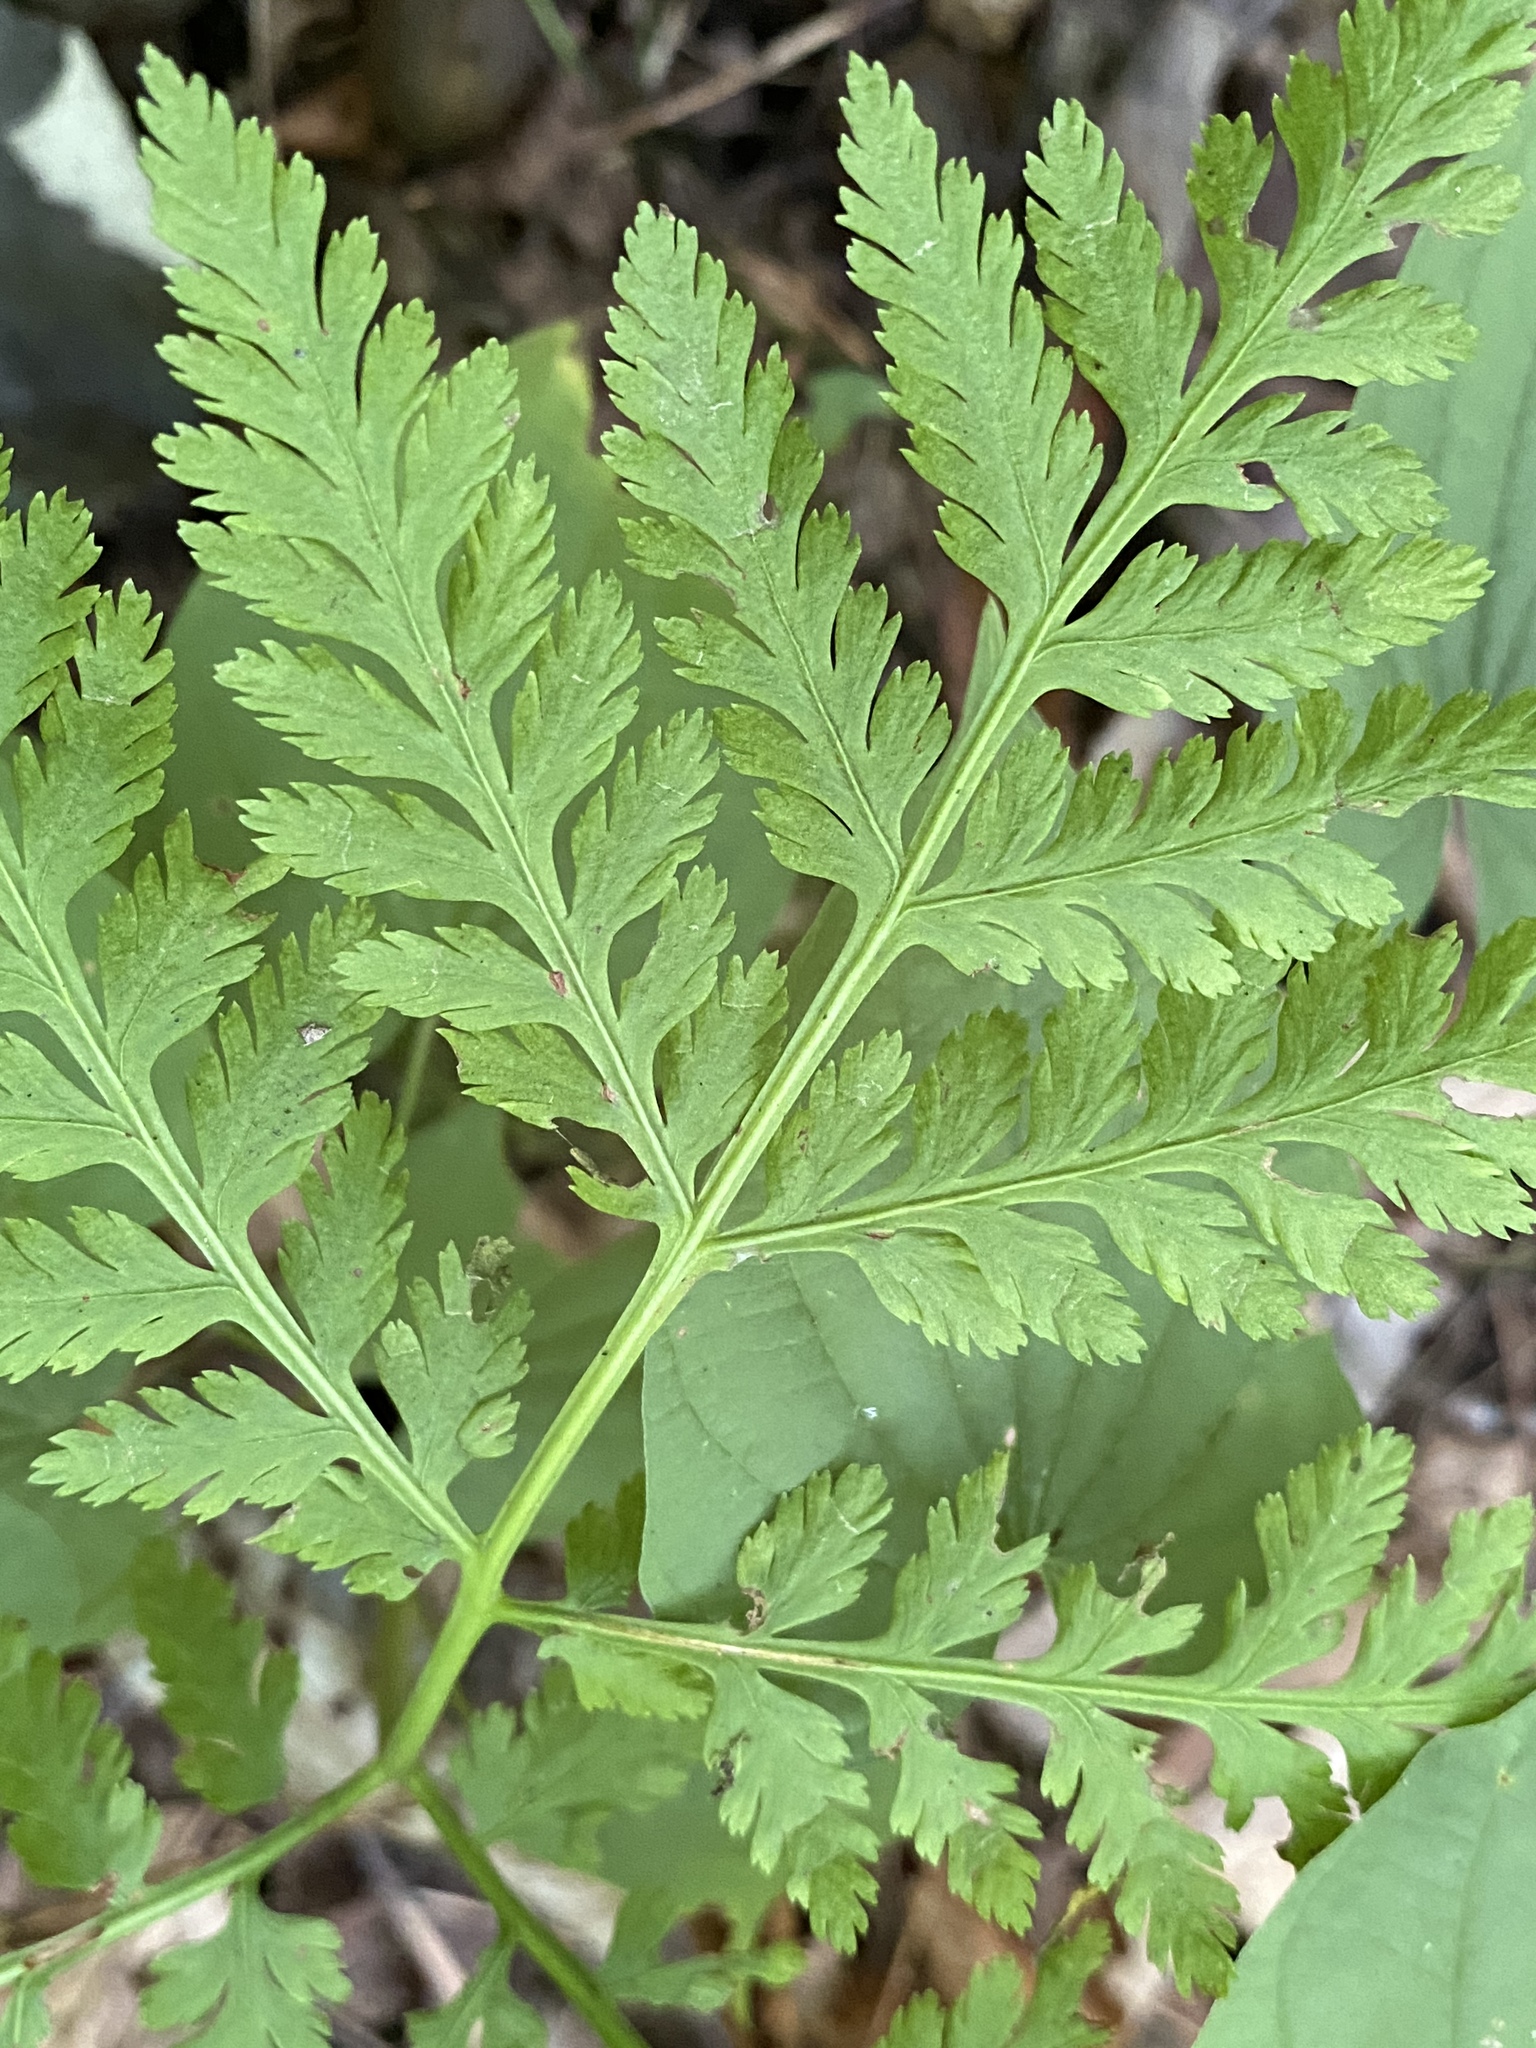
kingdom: Plantae
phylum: Tracheophyta
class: Polypodiopsida
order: Ophioglossales
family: Ophioglossaceae
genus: Botrypus
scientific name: Botrypus virginianus
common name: Common grapefern
